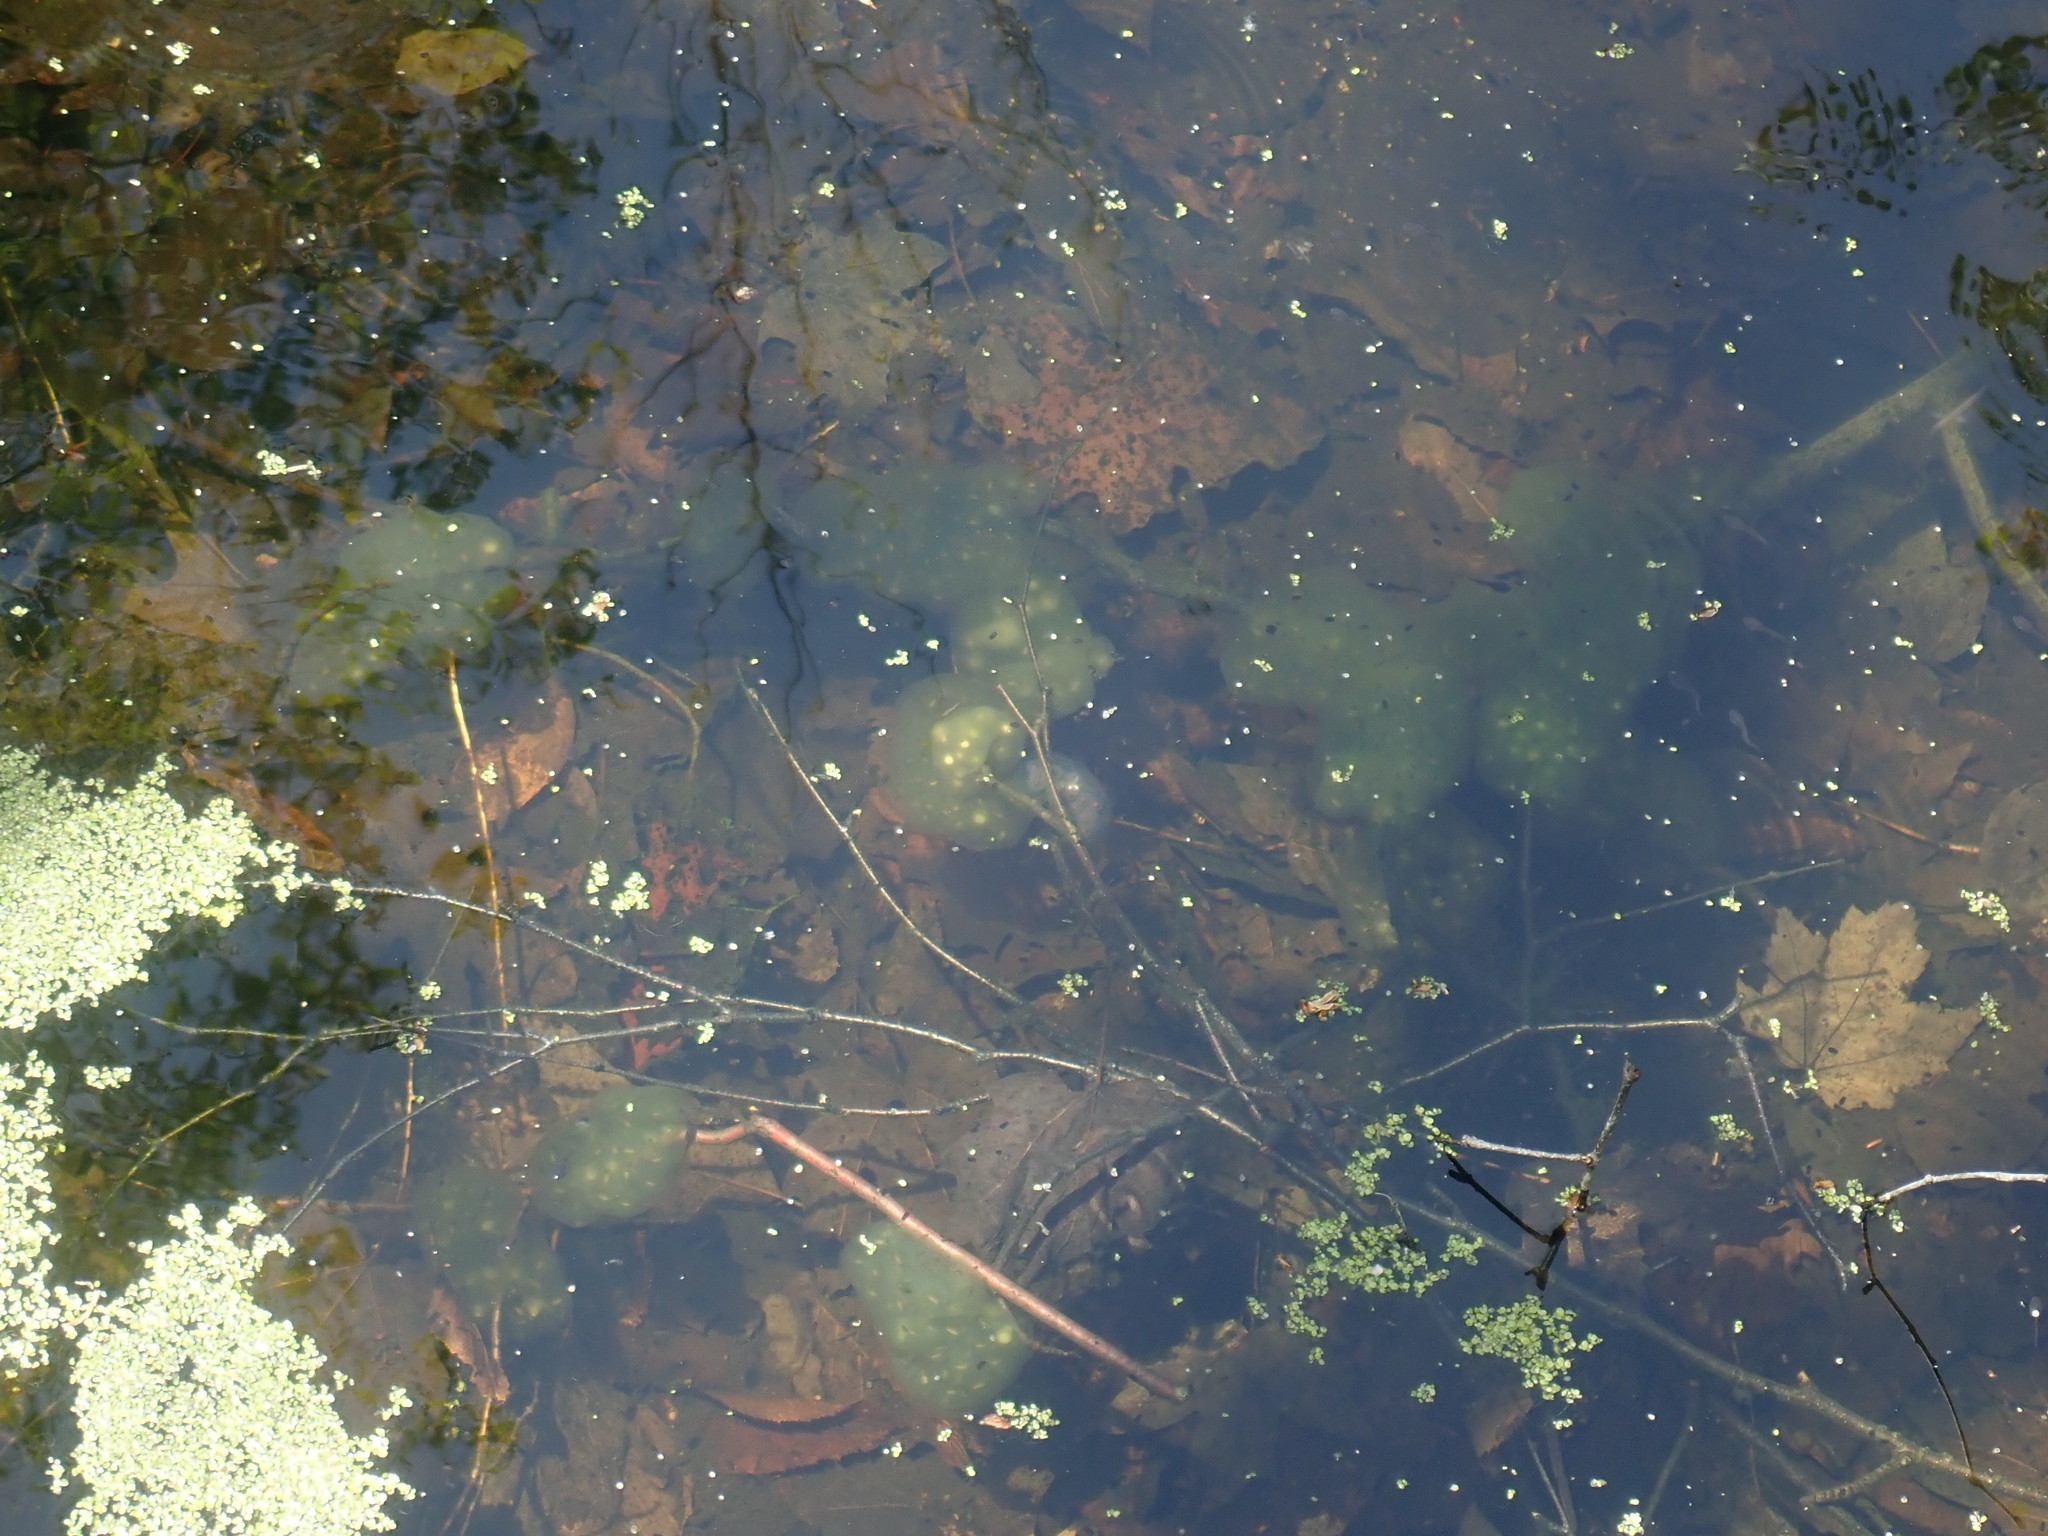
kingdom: Animalia
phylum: Chordata
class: Amphibia
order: Caudata
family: Ambystomatidae
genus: Ambystoma
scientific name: Ambystoma maculatum
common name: Spotted salamander
